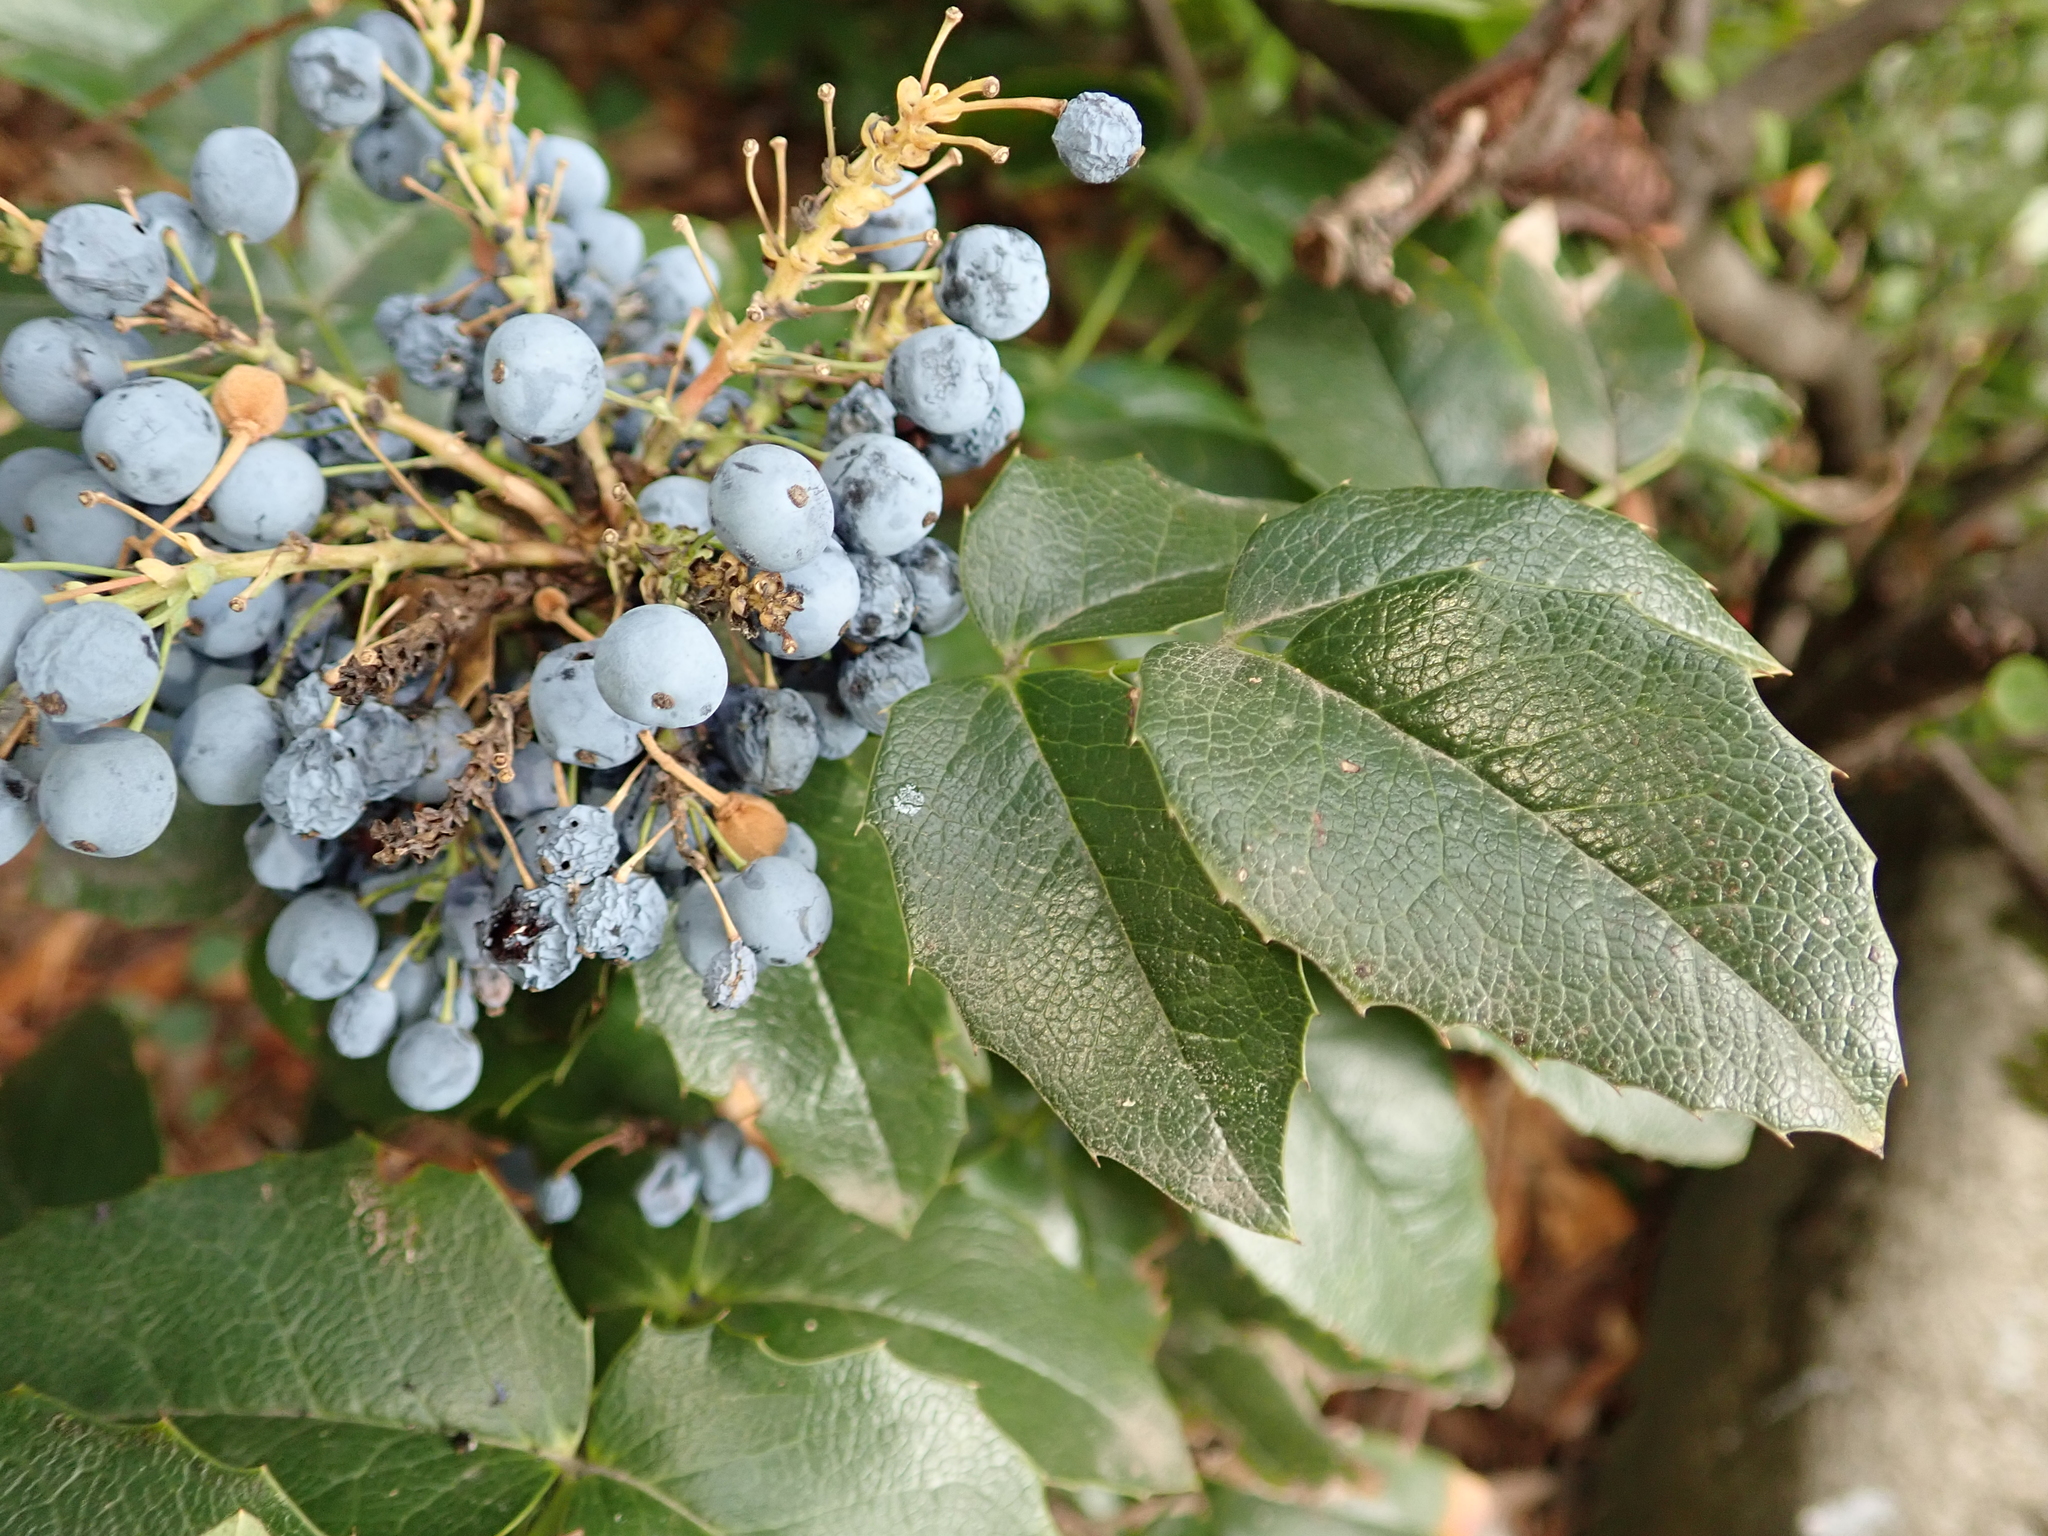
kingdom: Plantae
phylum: Tracheophyta
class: Magnoliopsida
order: Ranunculales
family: Berberidaceae
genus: Mahonia
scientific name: Mahonia aquifolium
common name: Oregon-grape
